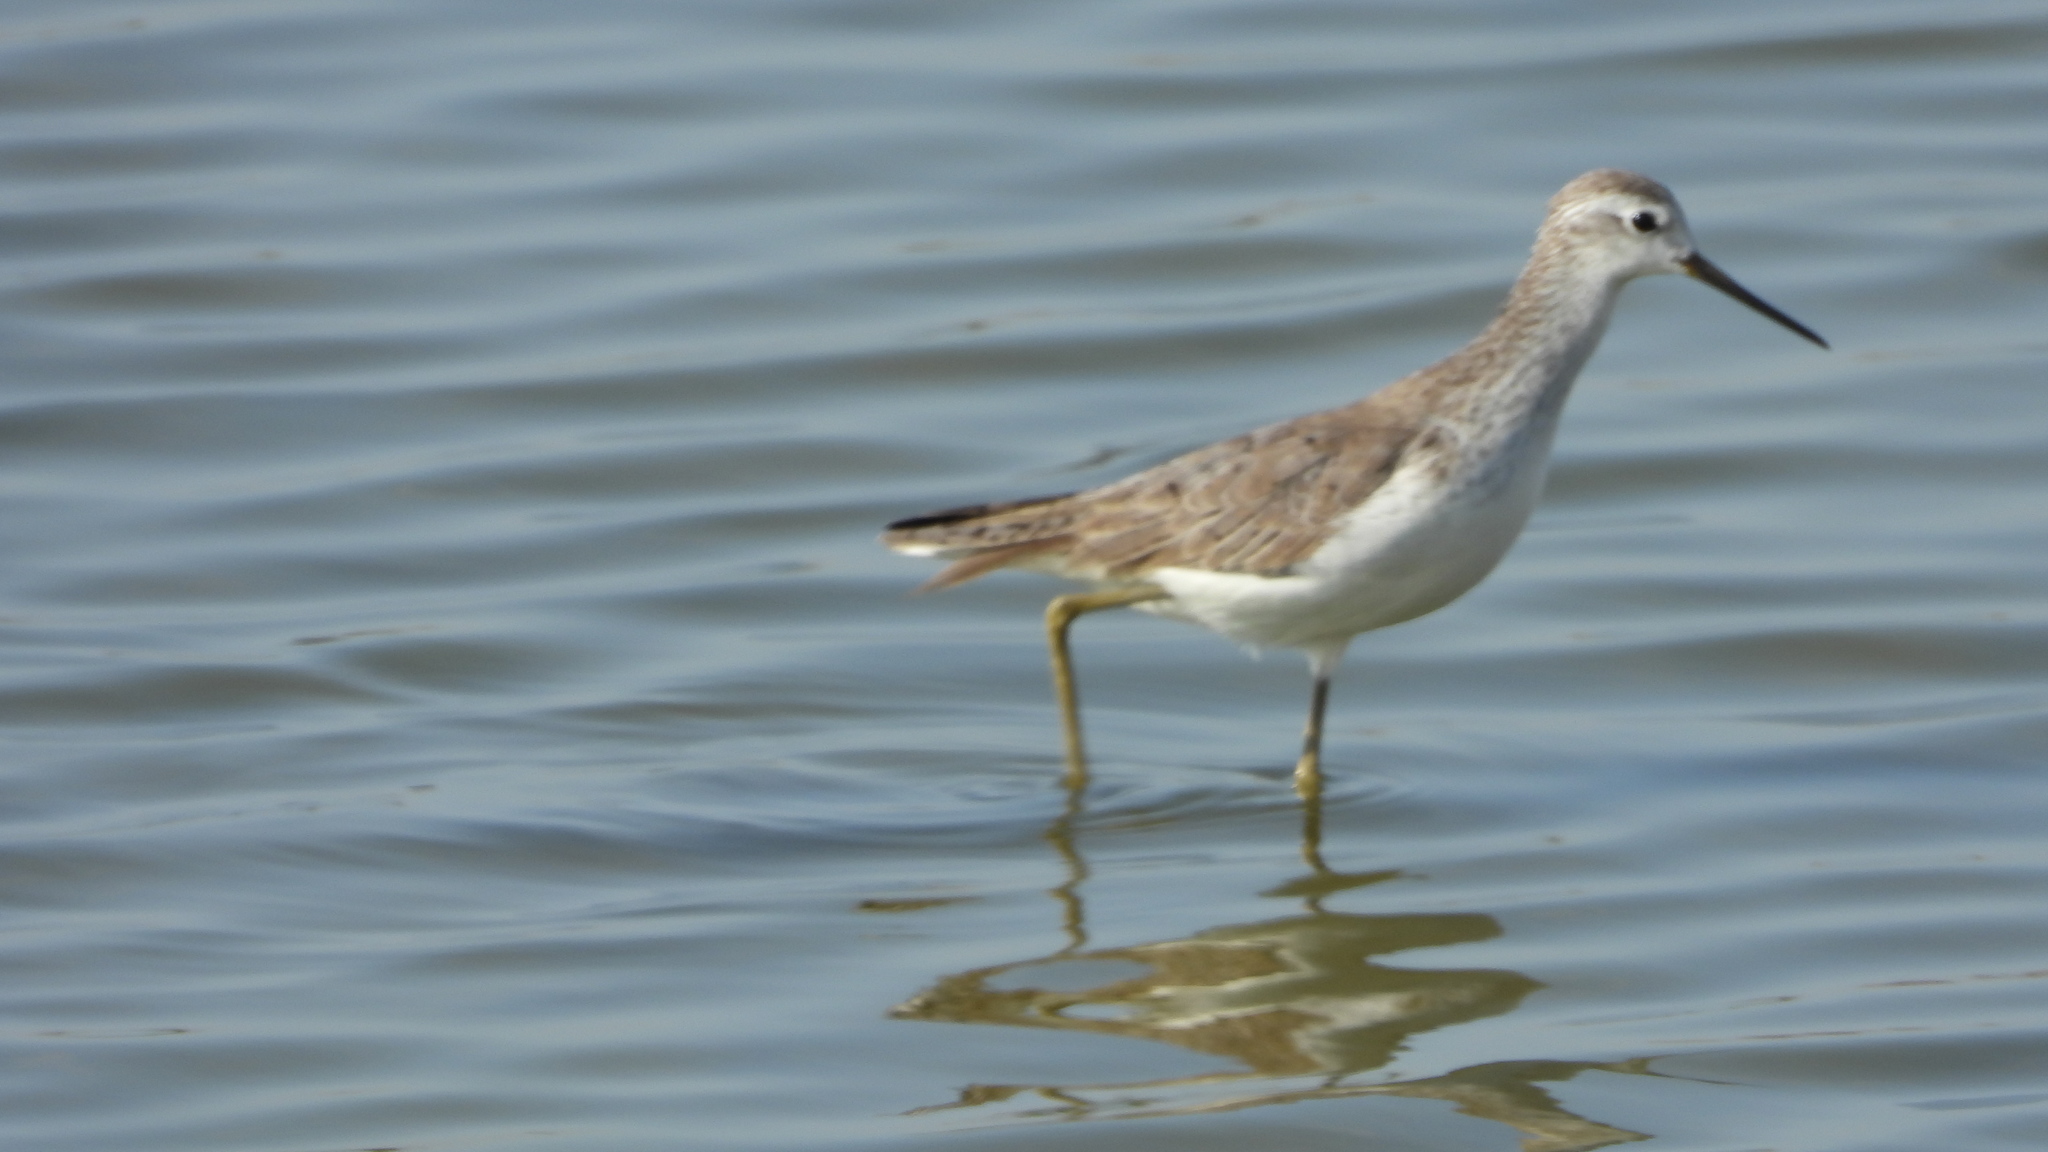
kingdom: Animalia
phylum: Chordata
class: Aves
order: Charadriiformes
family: Scolopacidae
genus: Tringa
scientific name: Tringa stagnatilis
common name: Marsh sandpiper
